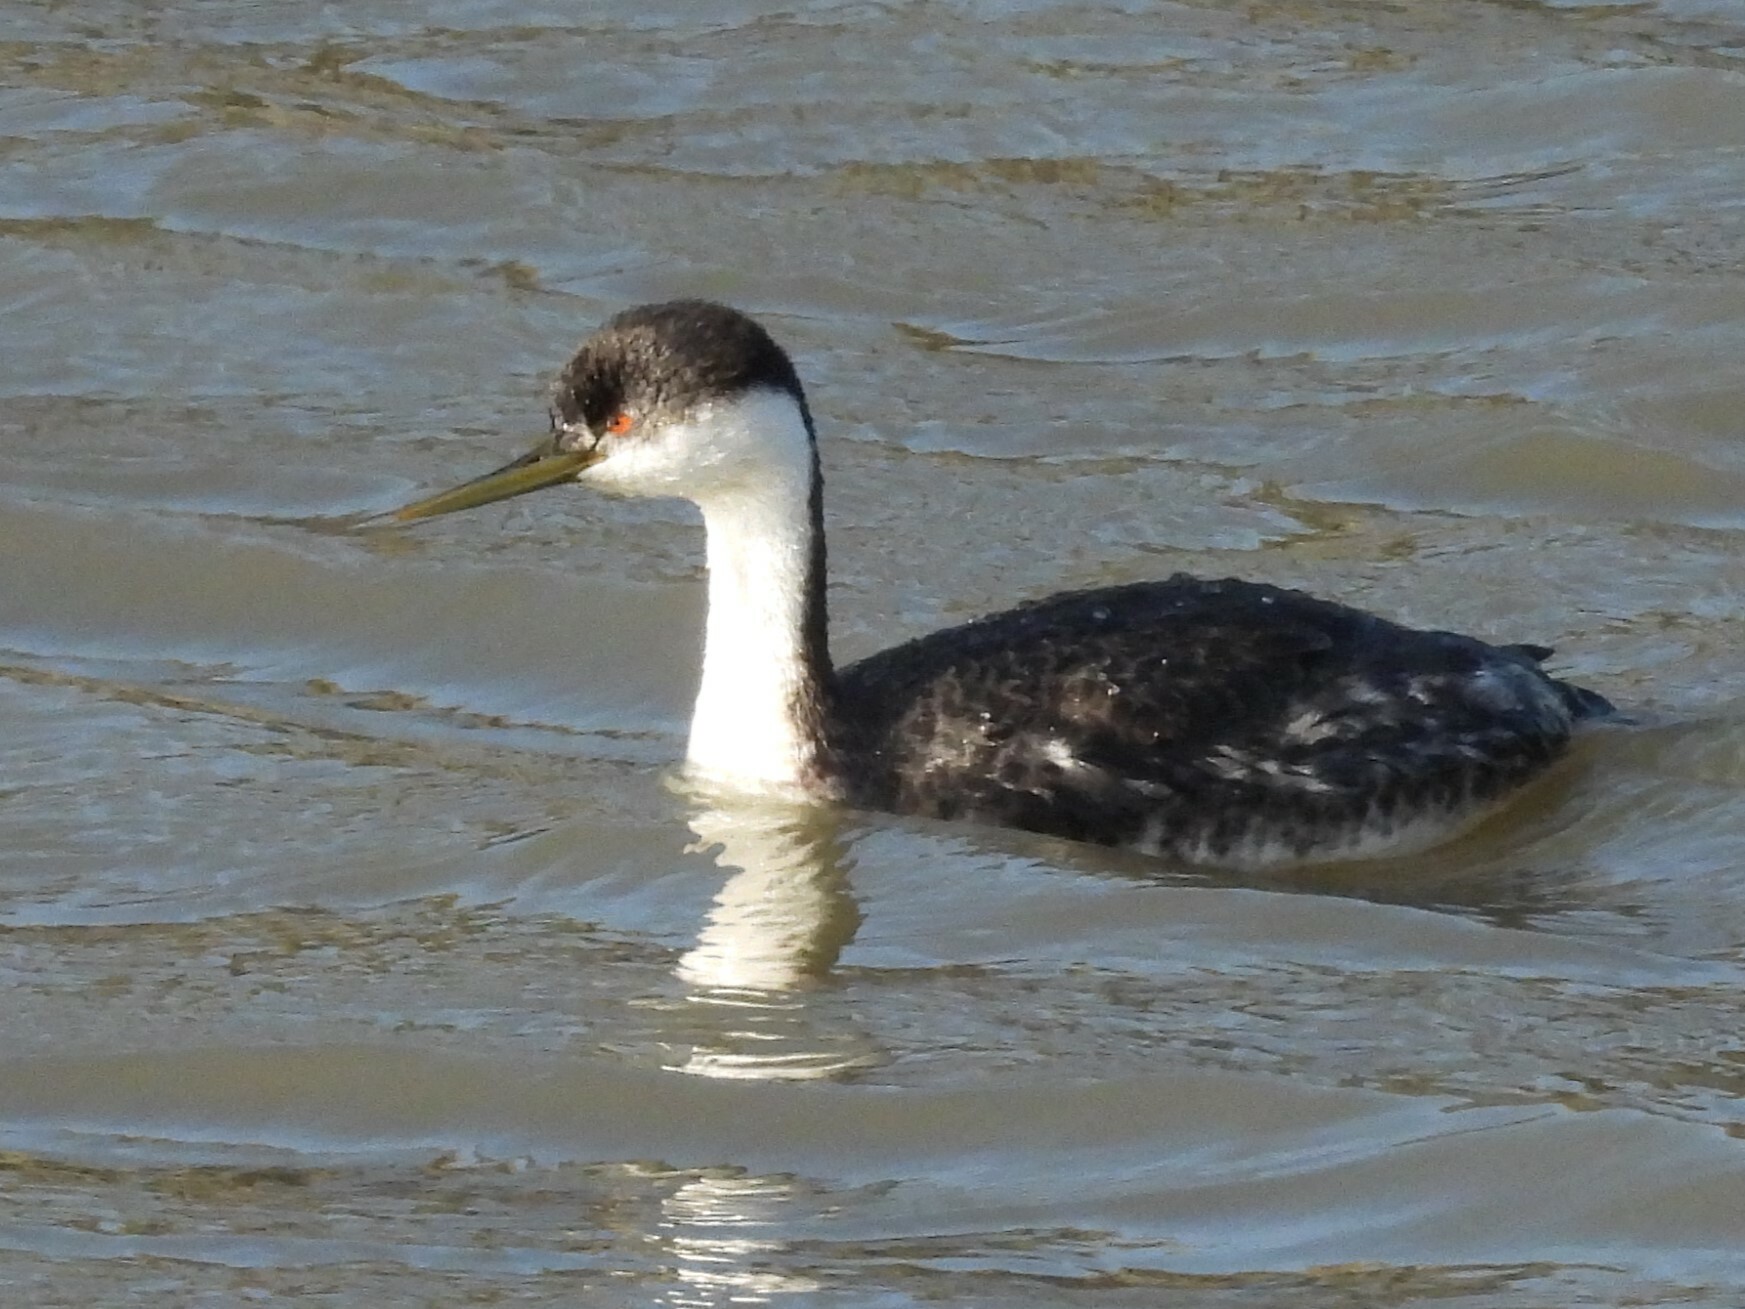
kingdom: Animalia
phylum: Chordata
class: Aves
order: Podicipediformes
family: Podicipedidae
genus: Aechmophorus
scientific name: Aechmophorus occidentalis
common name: Western grebe
